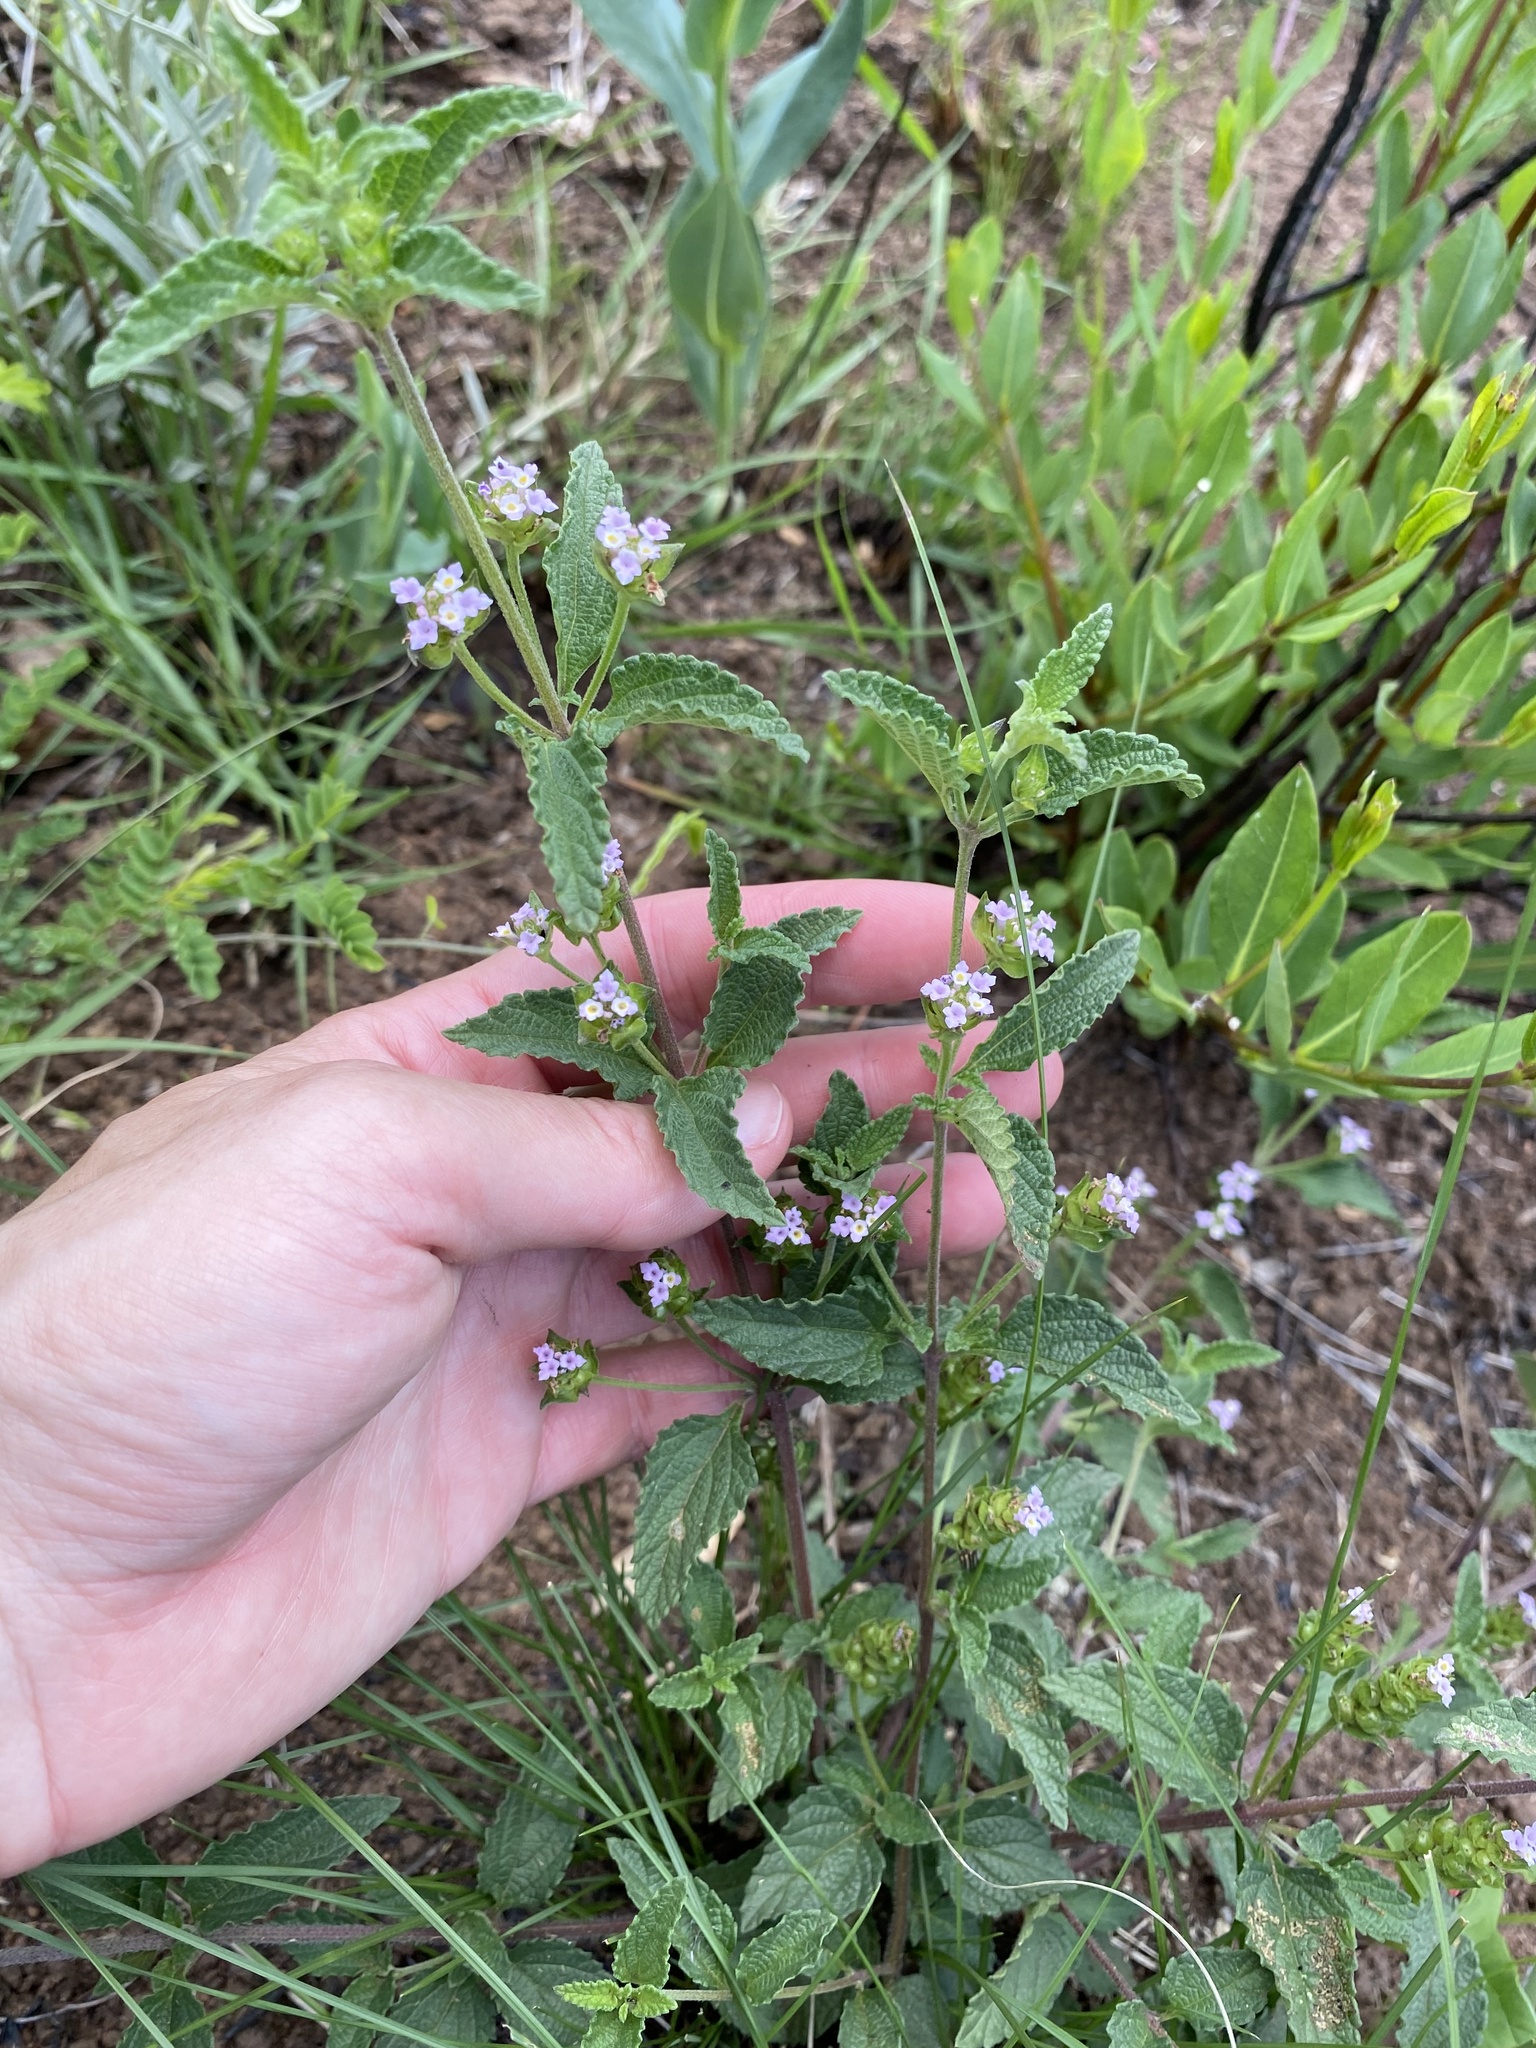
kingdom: Plantae
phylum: Tracheophyta
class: Magnoliopsida
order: Lamiales
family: Verbenaceae
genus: Lantana
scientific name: Lantana rugosa
